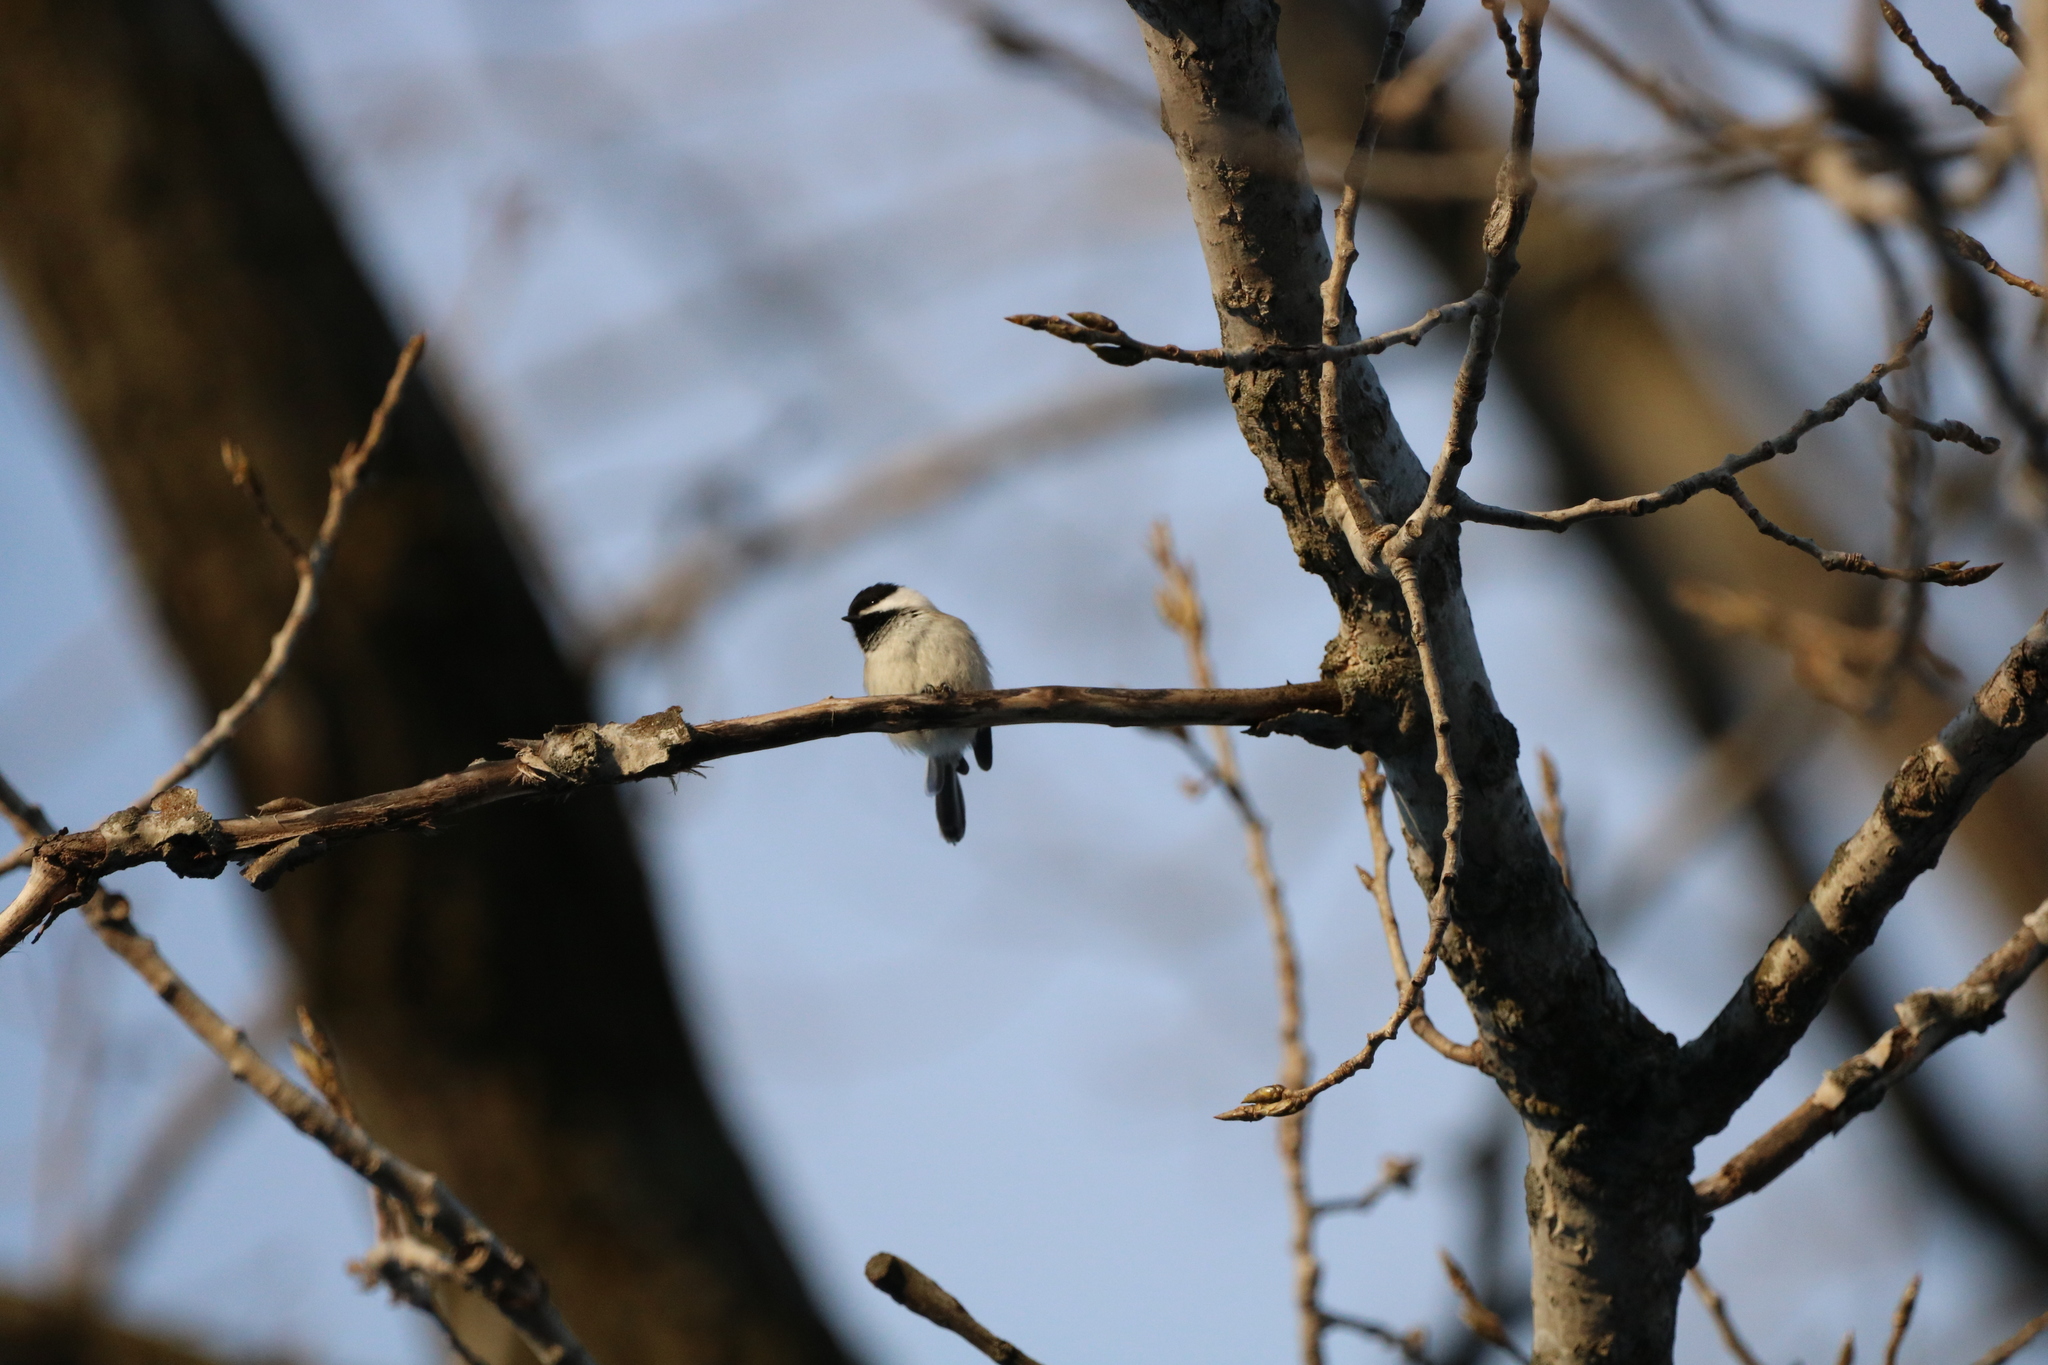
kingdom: Animalia
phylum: Chordata
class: Aves
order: Passeriformes
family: Paridae
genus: Poecile
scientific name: Poecile atricapillus
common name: Black-capped chickadee
